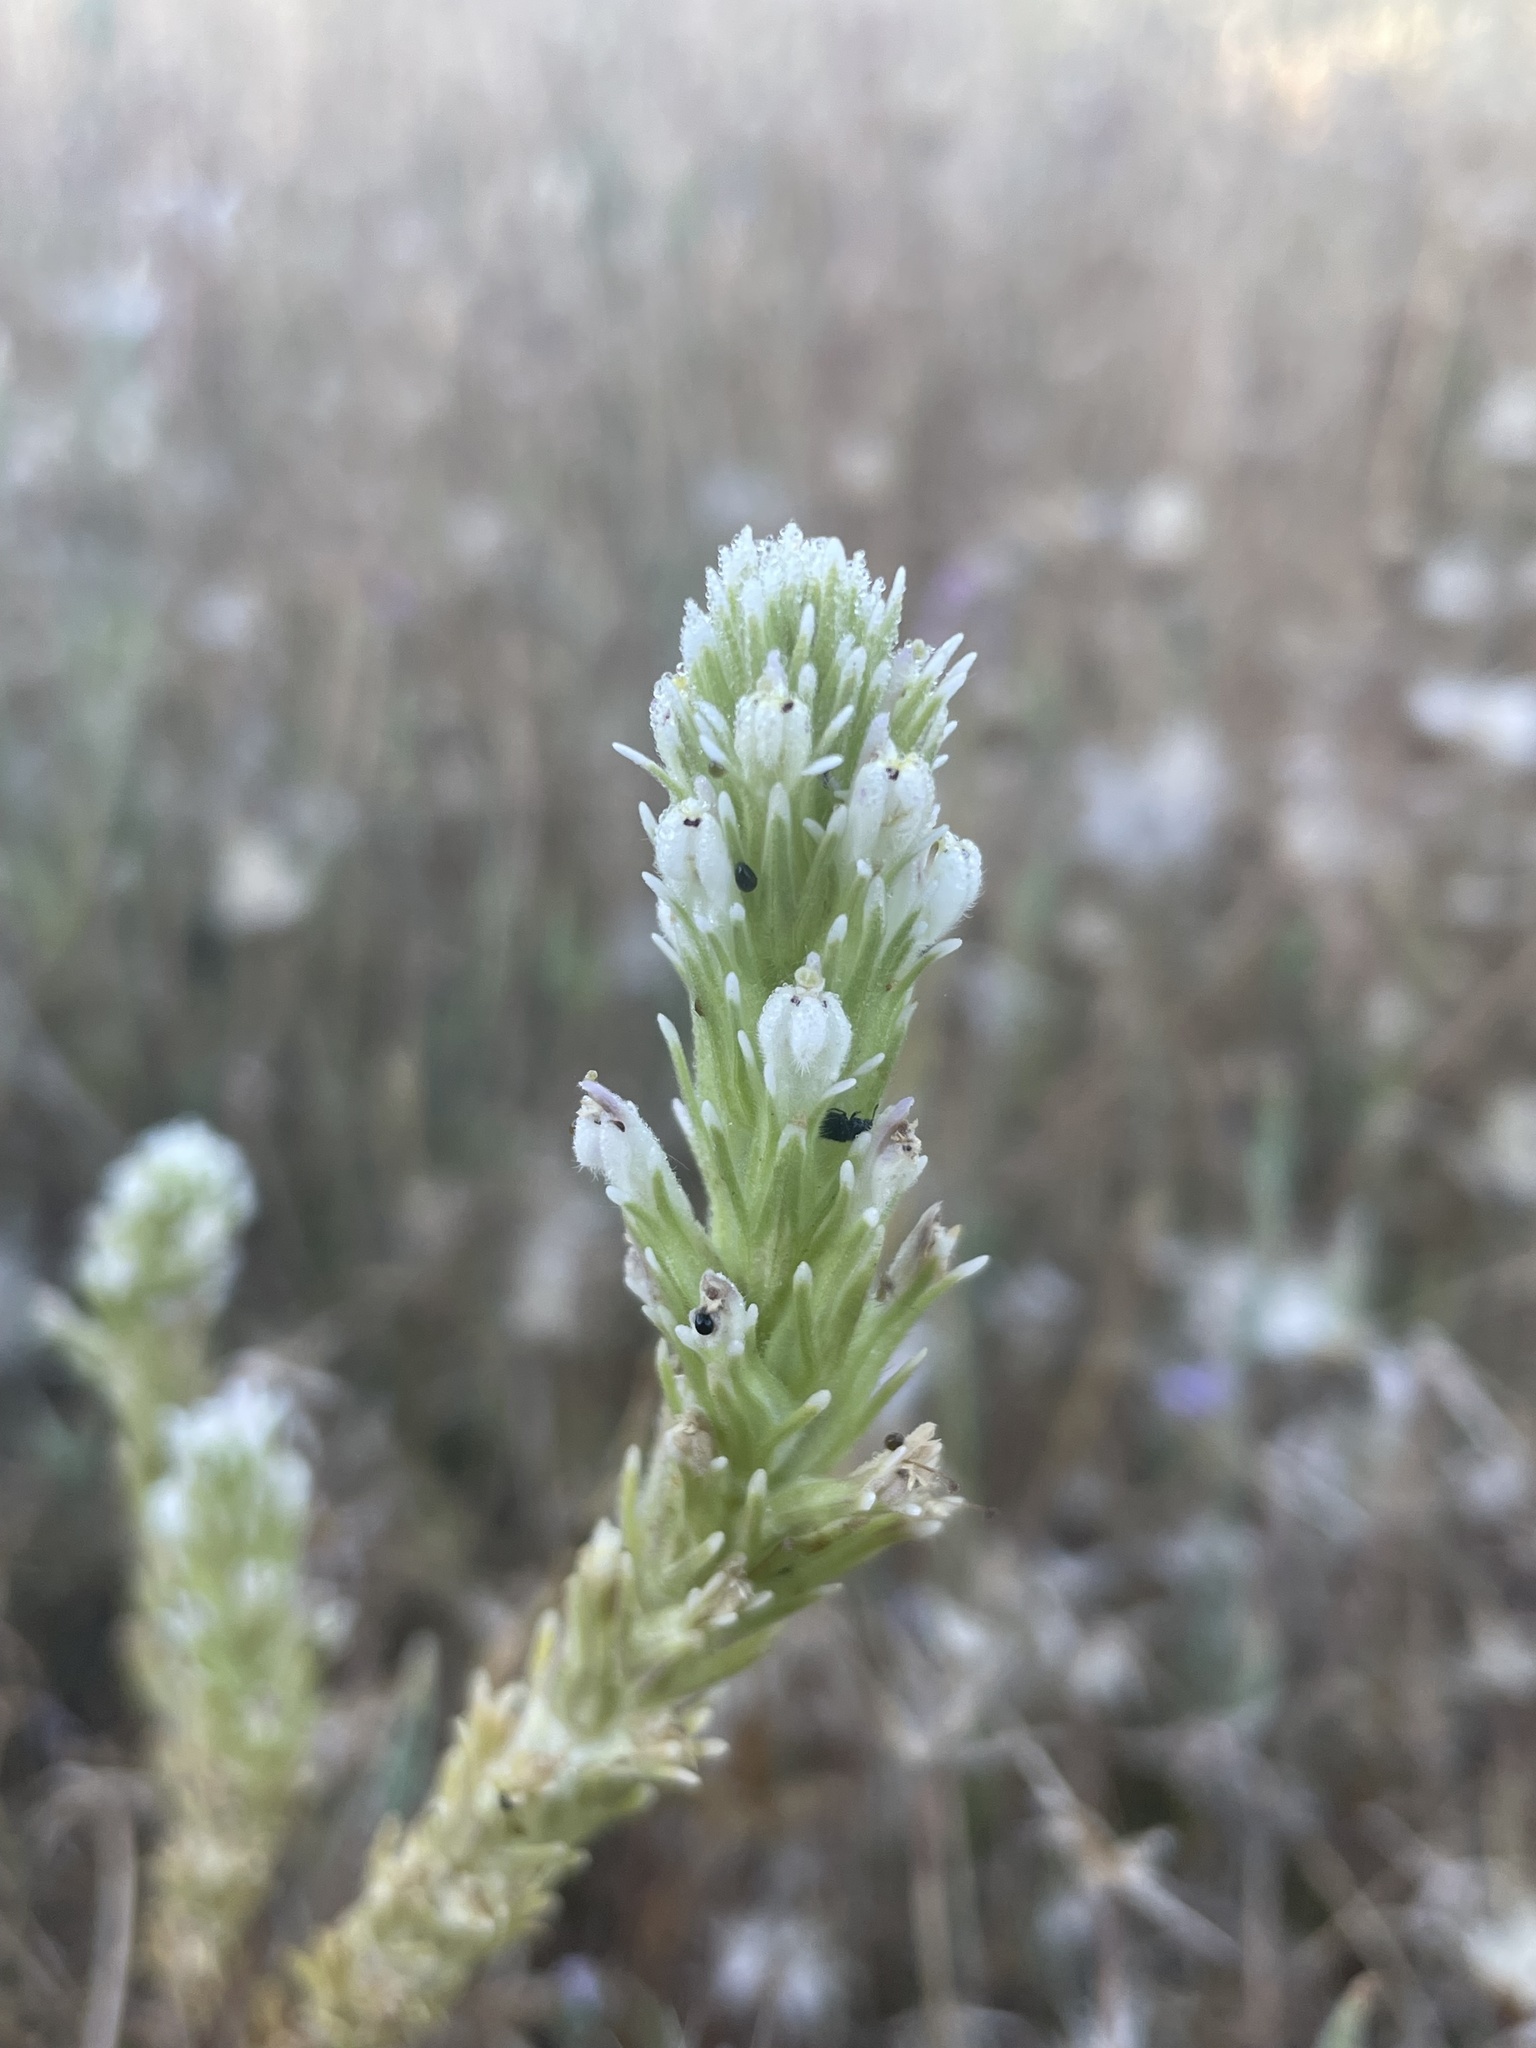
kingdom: Plantae
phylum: Tracheophyta
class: Magnoliopsida
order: Lamiales
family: Orobanchaceae
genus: Castilleja
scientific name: Castilleja attenuata
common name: Valley tassels
